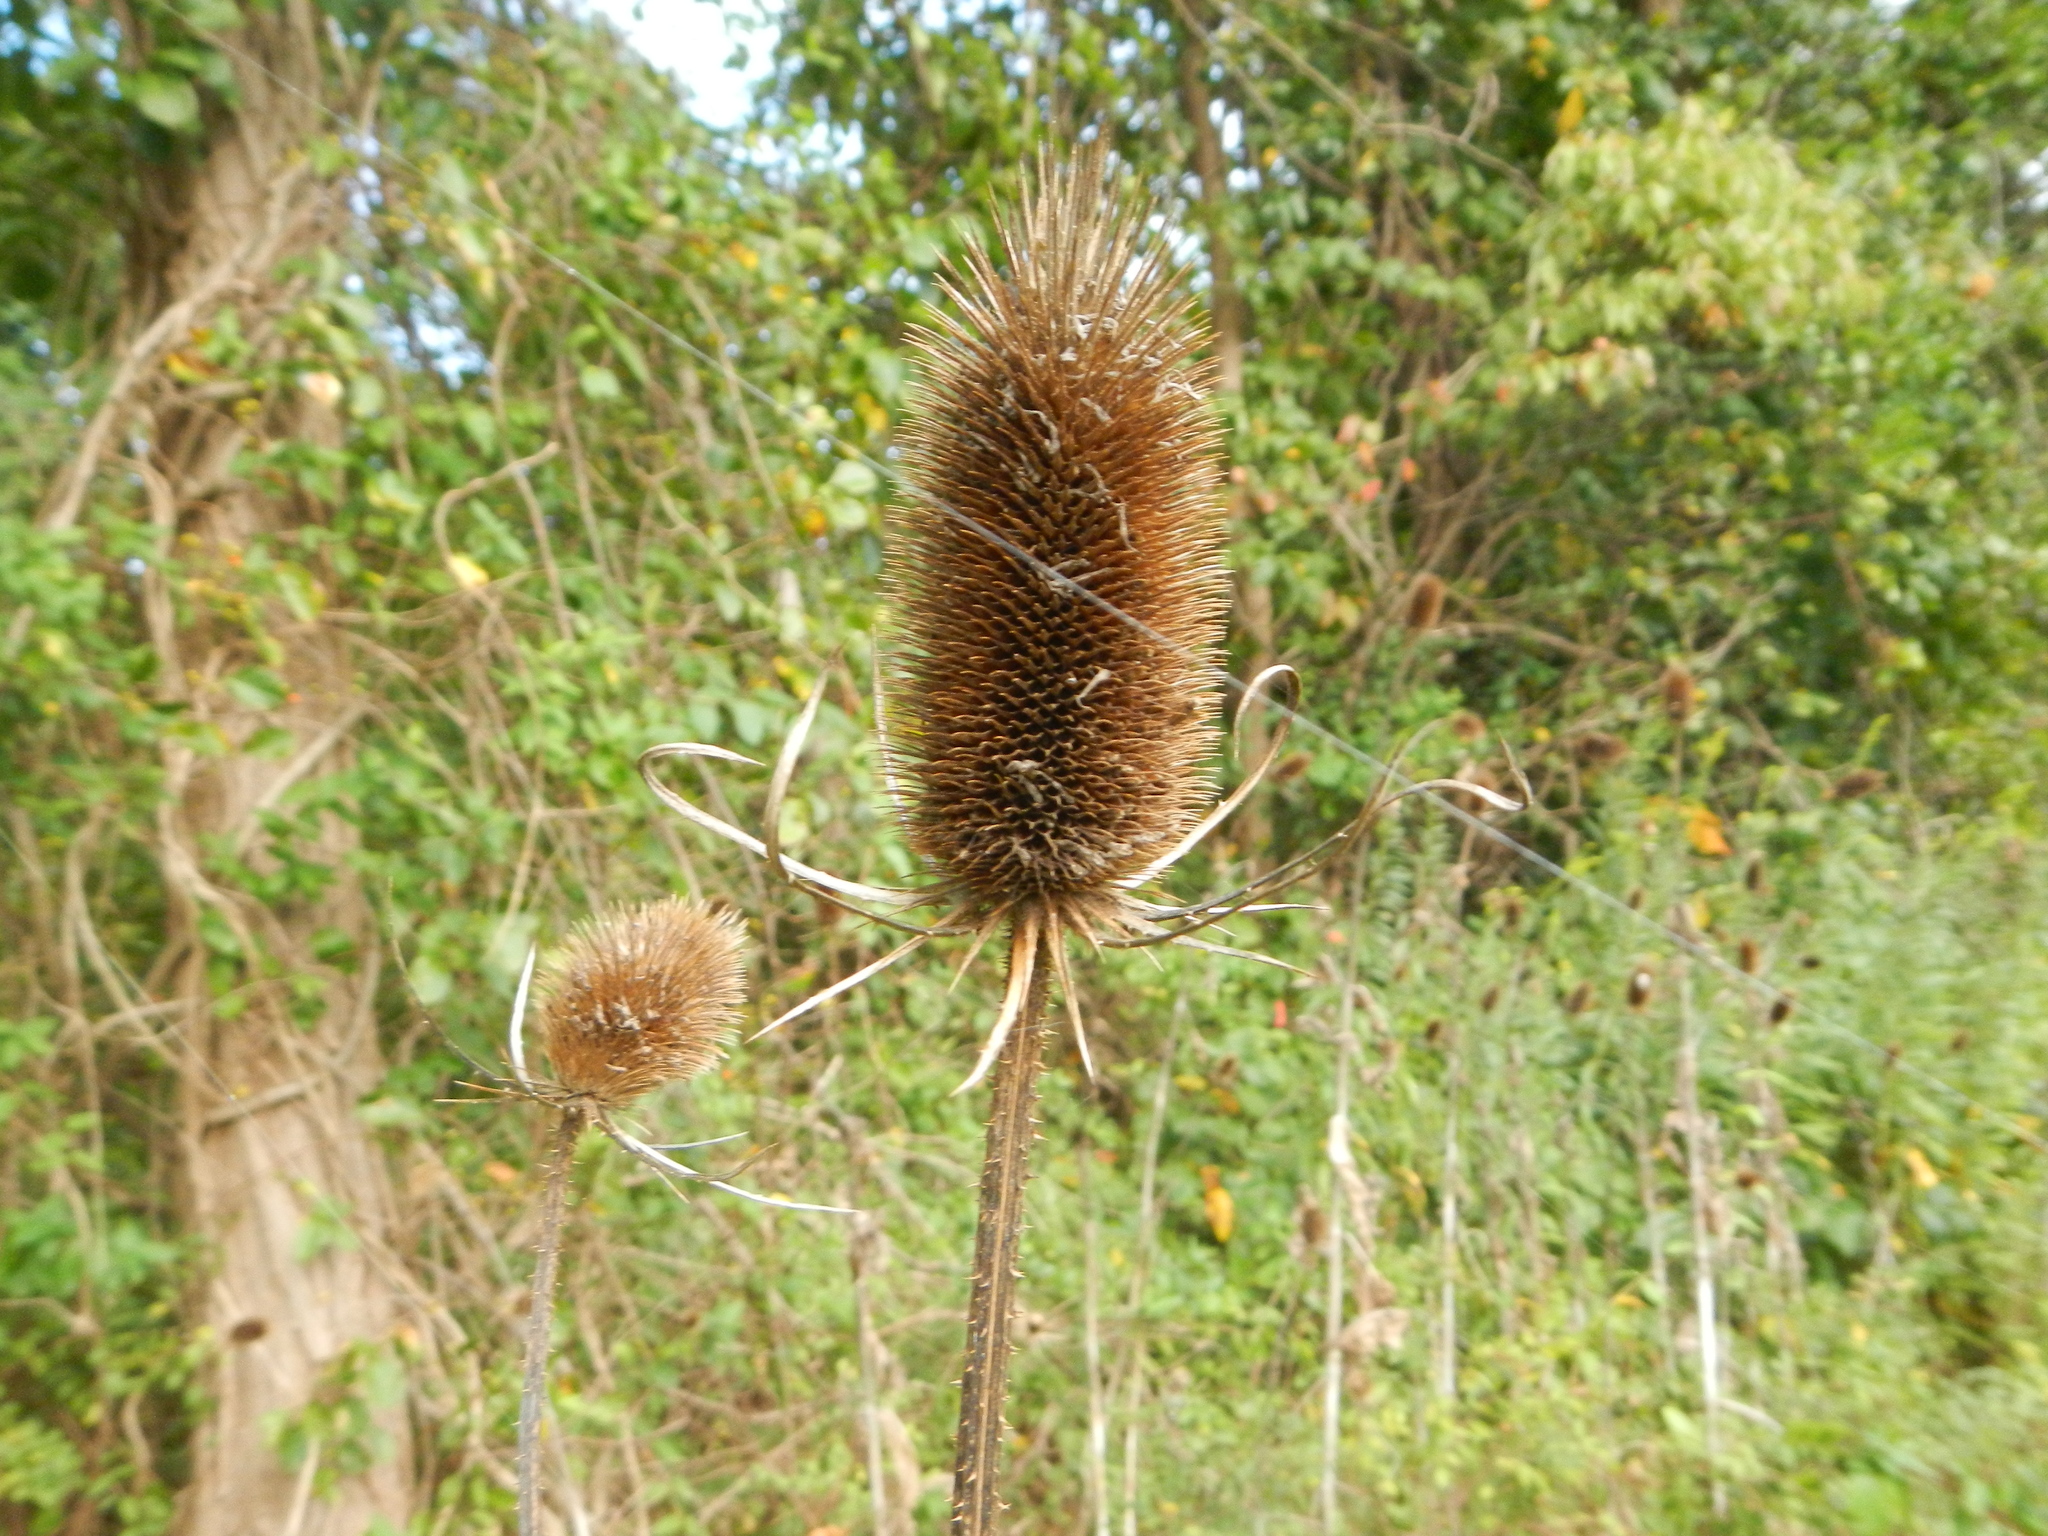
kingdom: Plantae
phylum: Tracheophyta
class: Magnoliopsida
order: Dipsacales
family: Caprifoliaceae
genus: Dipsacus
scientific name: Dipsacus fullonum
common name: Teasel
